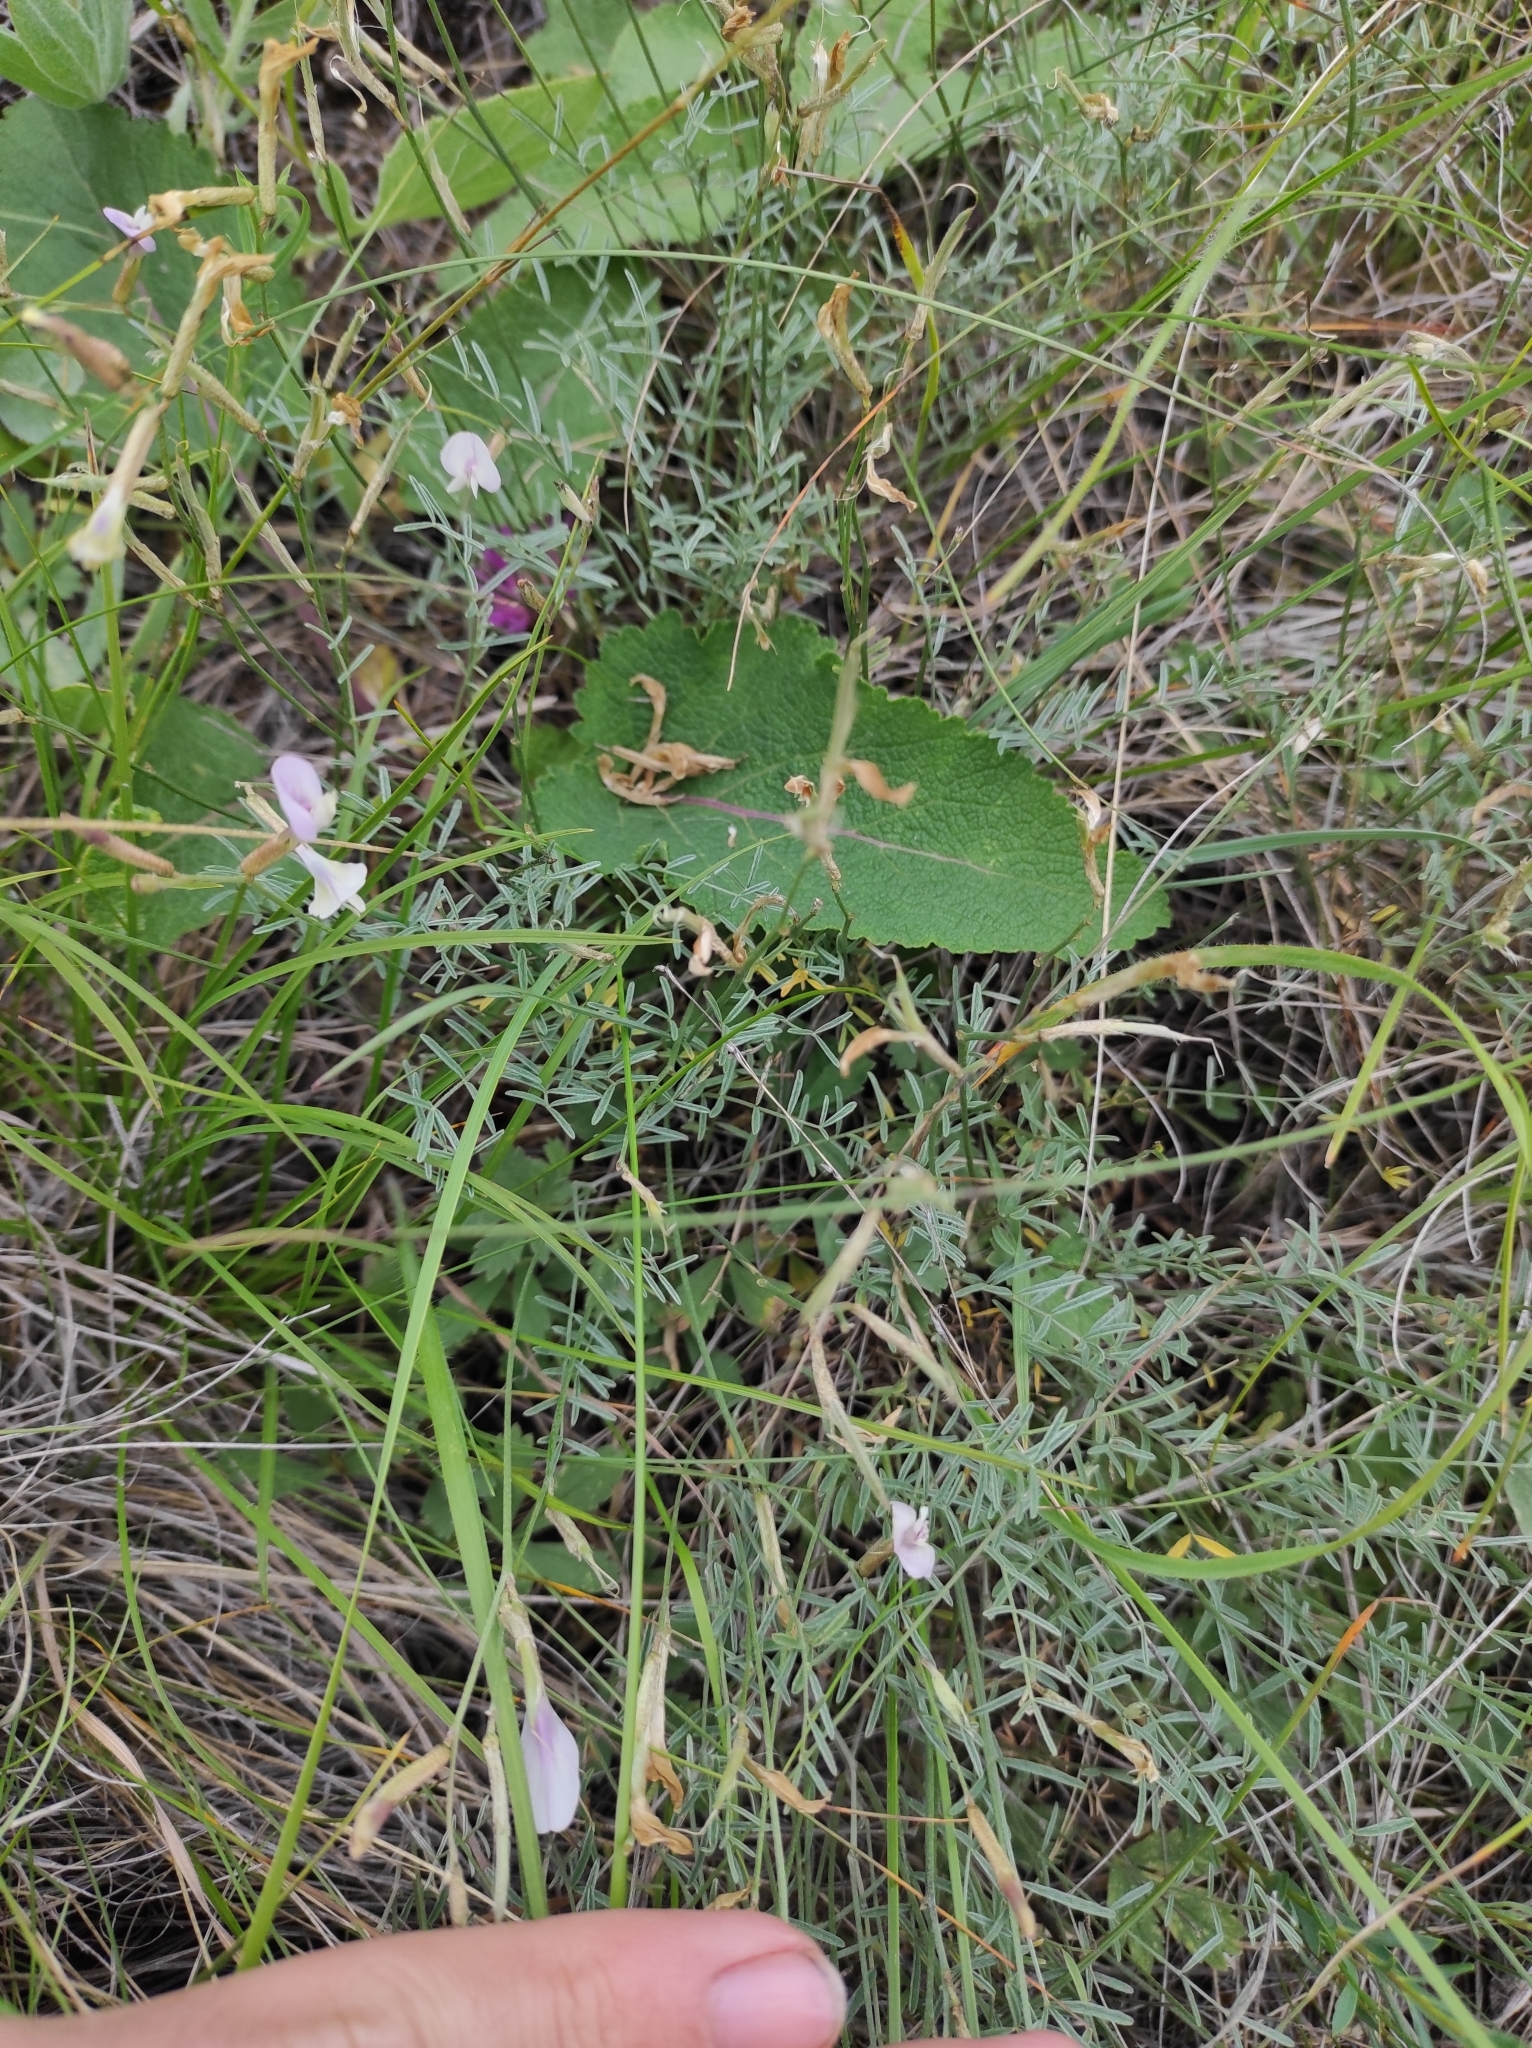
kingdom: Plantae
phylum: Tracheophyta
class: Magnoliopsida
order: Fabales
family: Fabaceae
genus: Astragalus
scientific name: Astragalus ucrainicus
